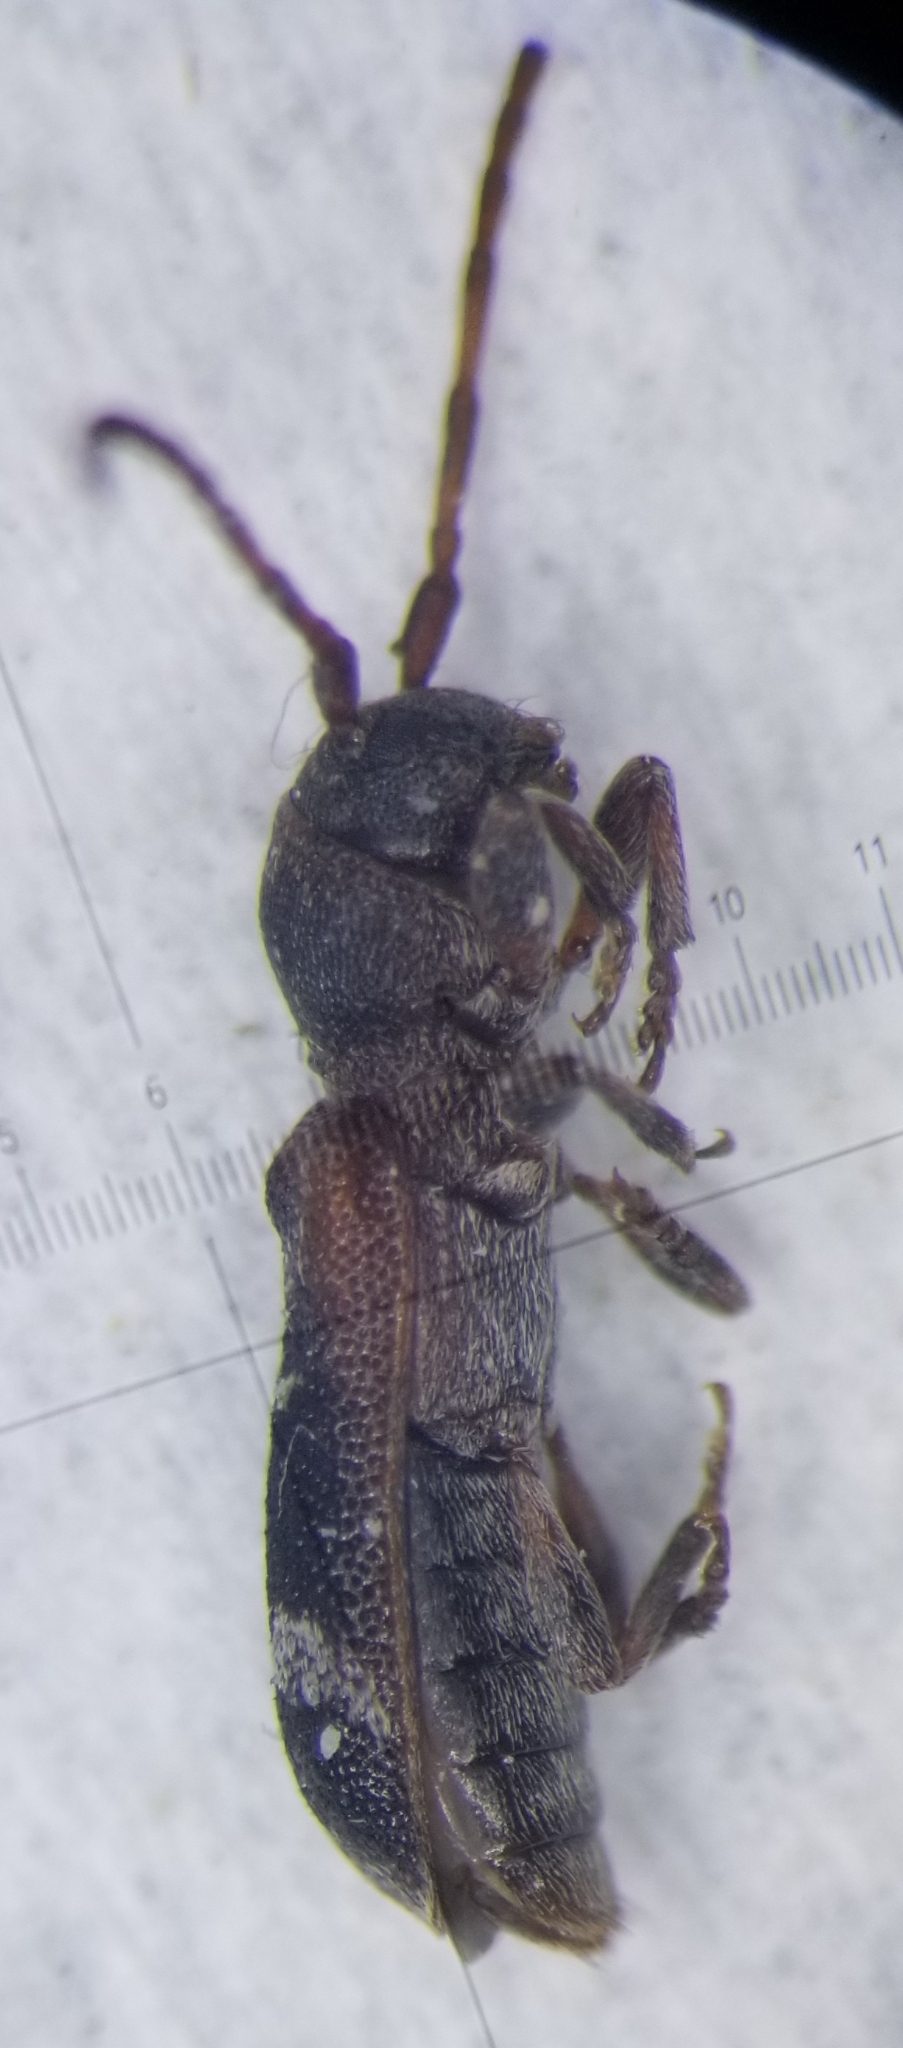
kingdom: Animalia
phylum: Arthropoda
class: Insecta
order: Coleoptera
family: Cerambycidae
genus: Psenocerus
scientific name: Psenocerus supernotatus
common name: Currant-tip borer
